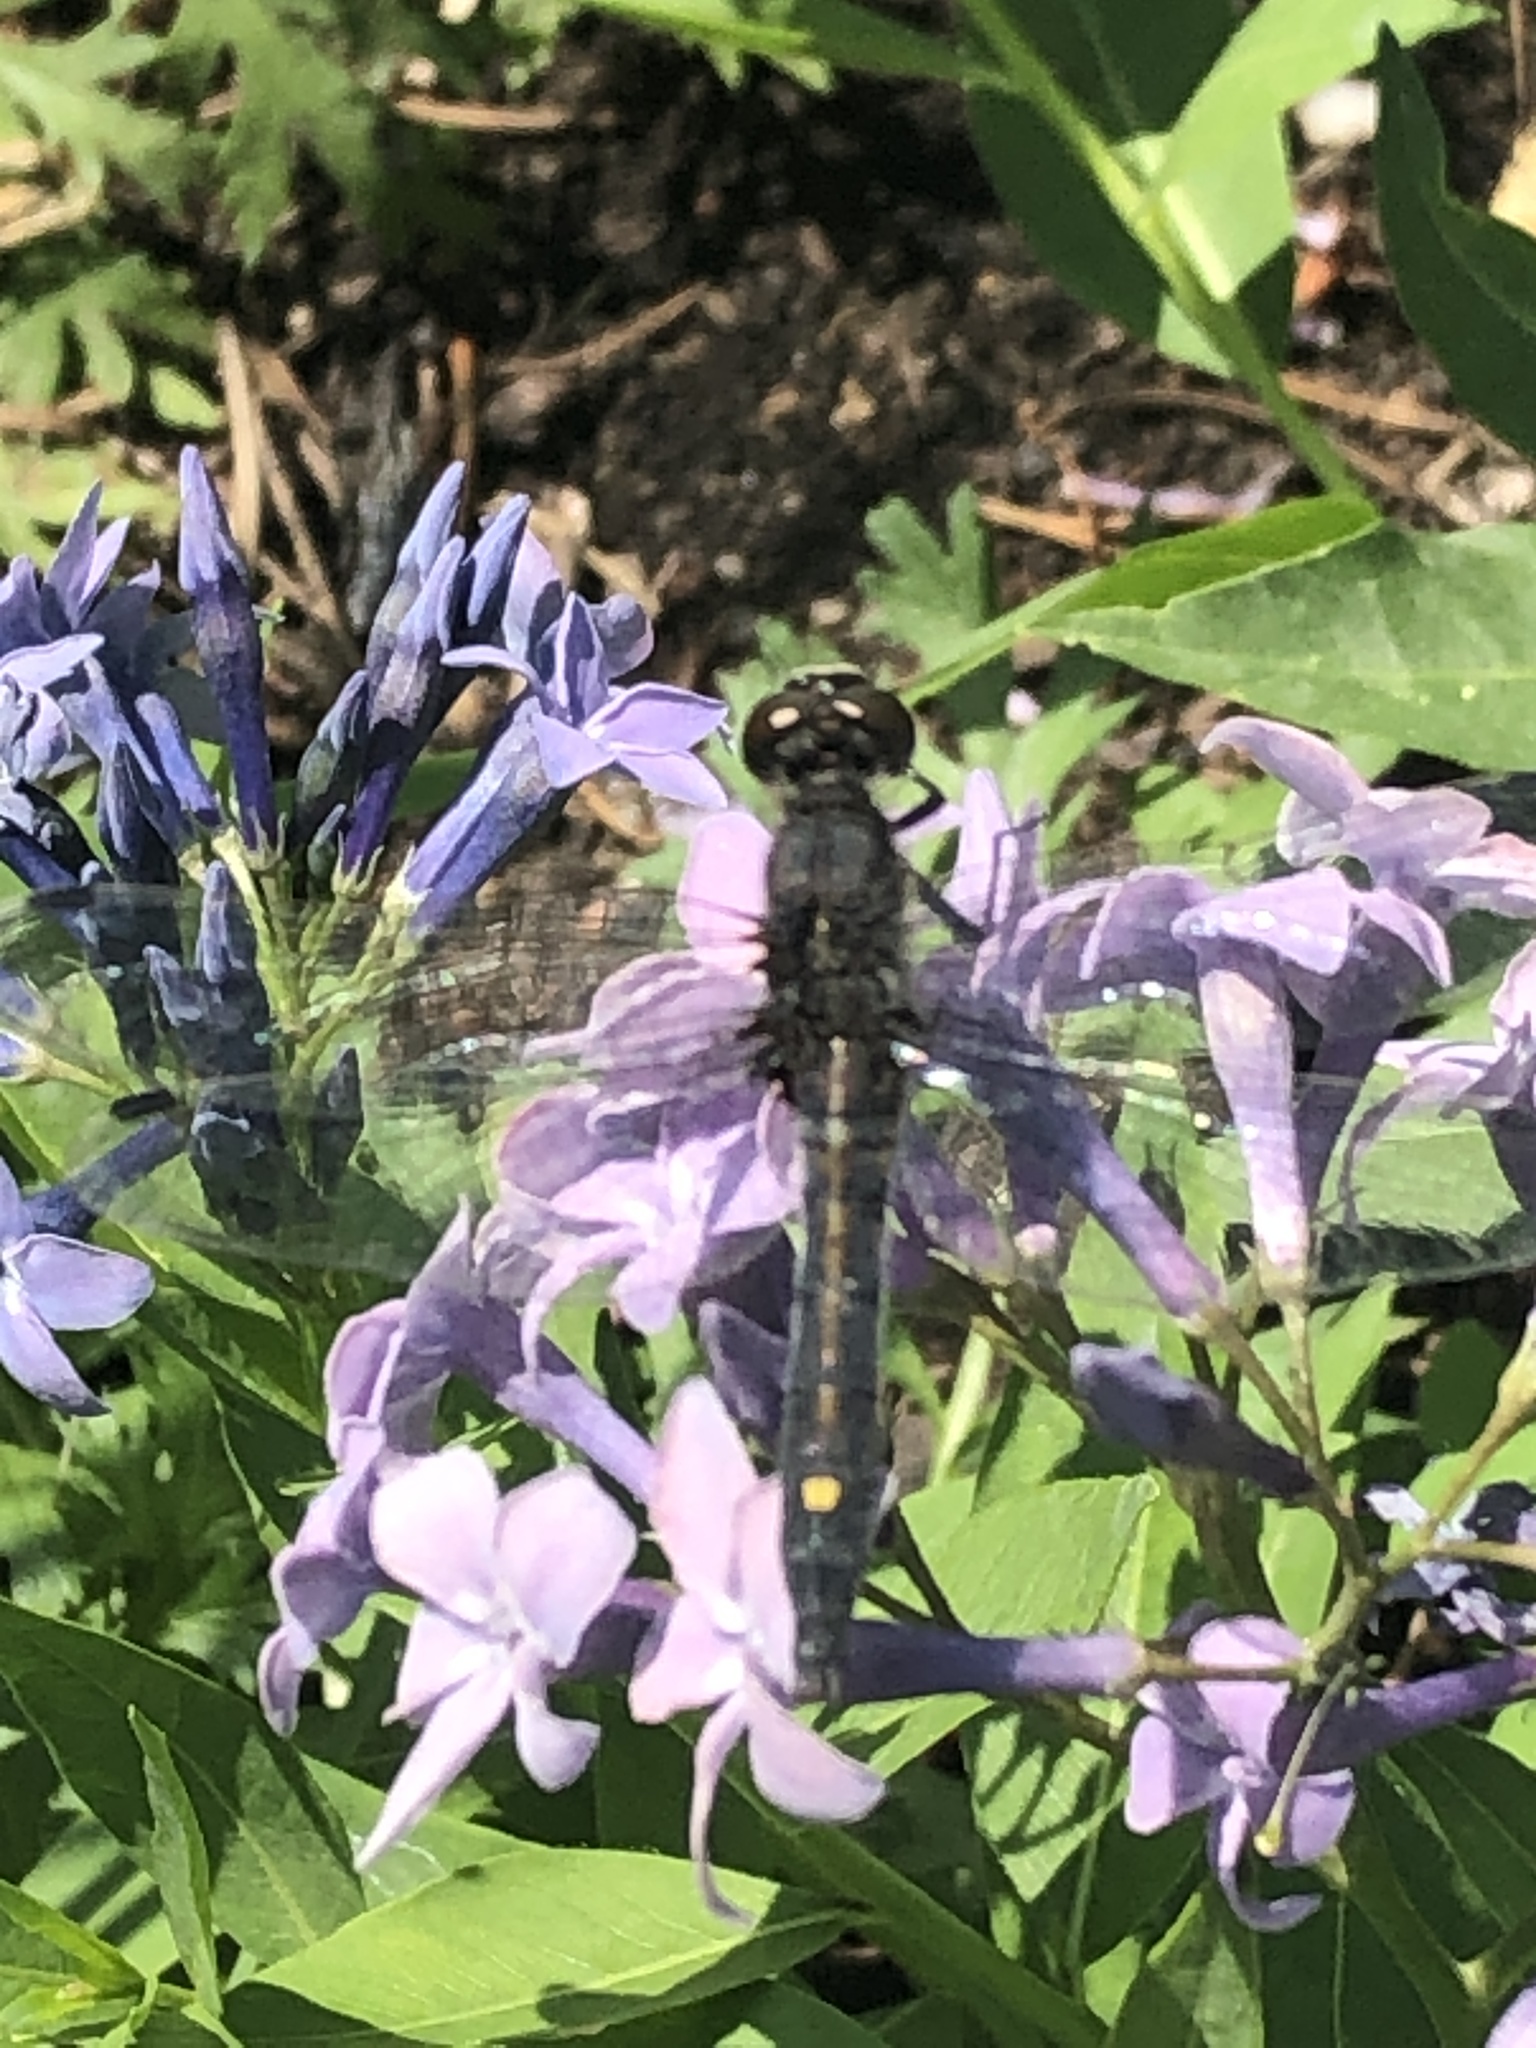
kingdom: Animalia
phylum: Arthropoda
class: Insecta
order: Odonata
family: Libellulidae
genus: Leucorrhinia
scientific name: Leucorrhinia intacta
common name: Dot-tailed whiteface
